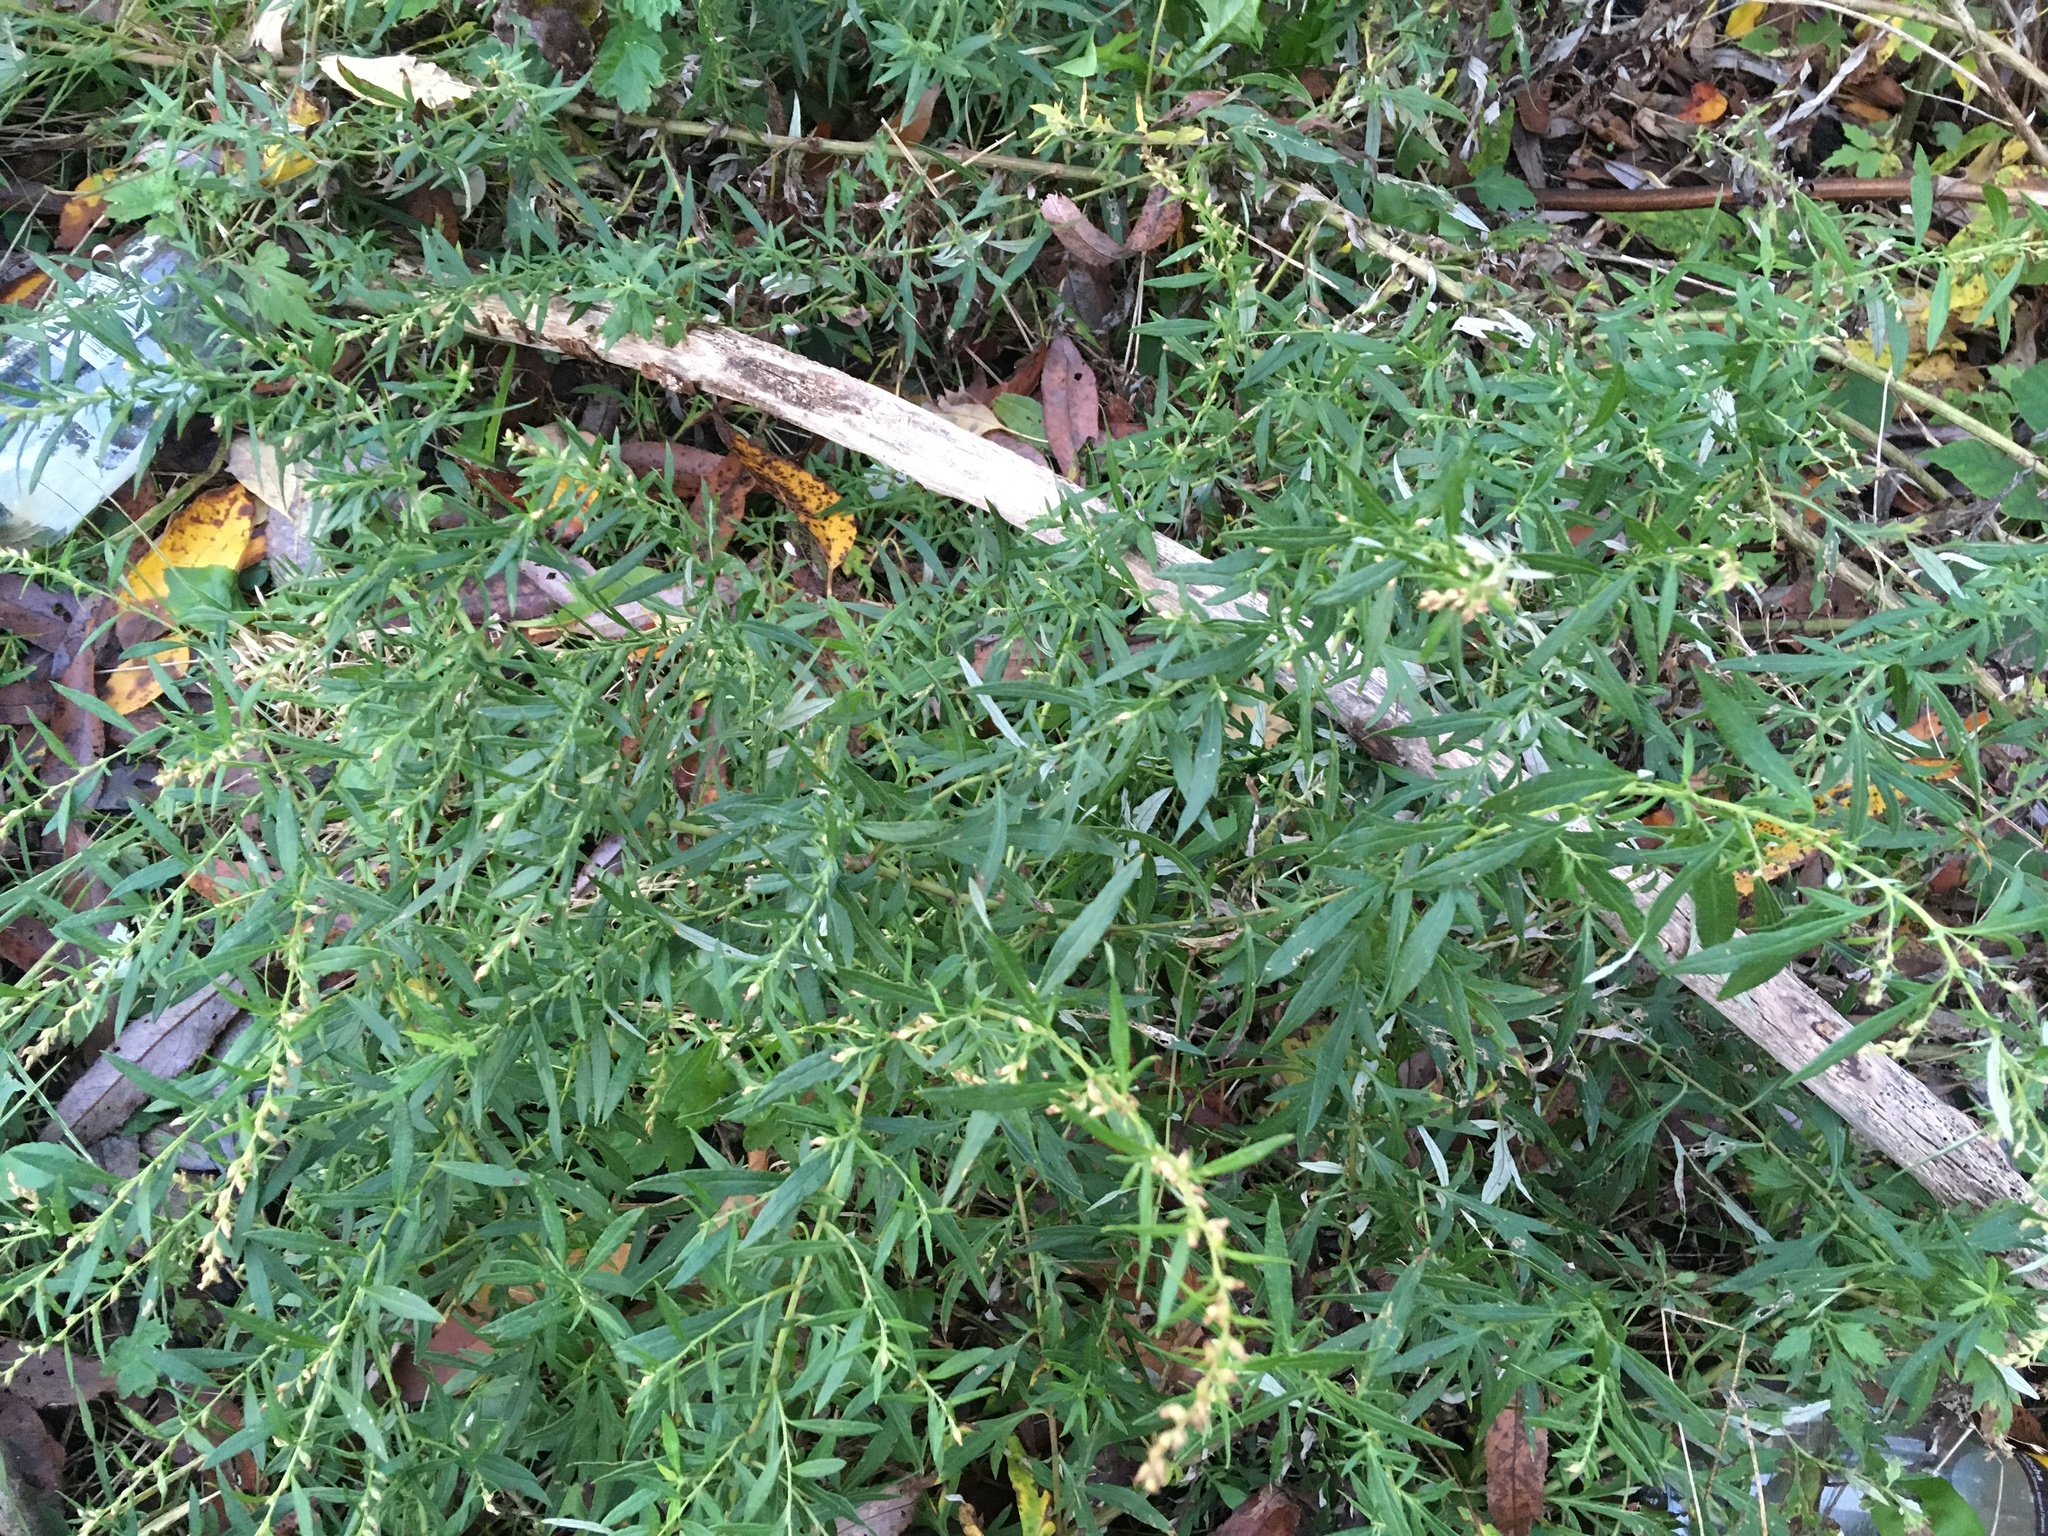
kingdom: Plantae
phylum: Tracheophyta
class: Magnoliopsida
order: Asterales
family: Asteraceae
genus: Artemisia
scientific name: Artemisia vulgaris
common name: Mugwort
